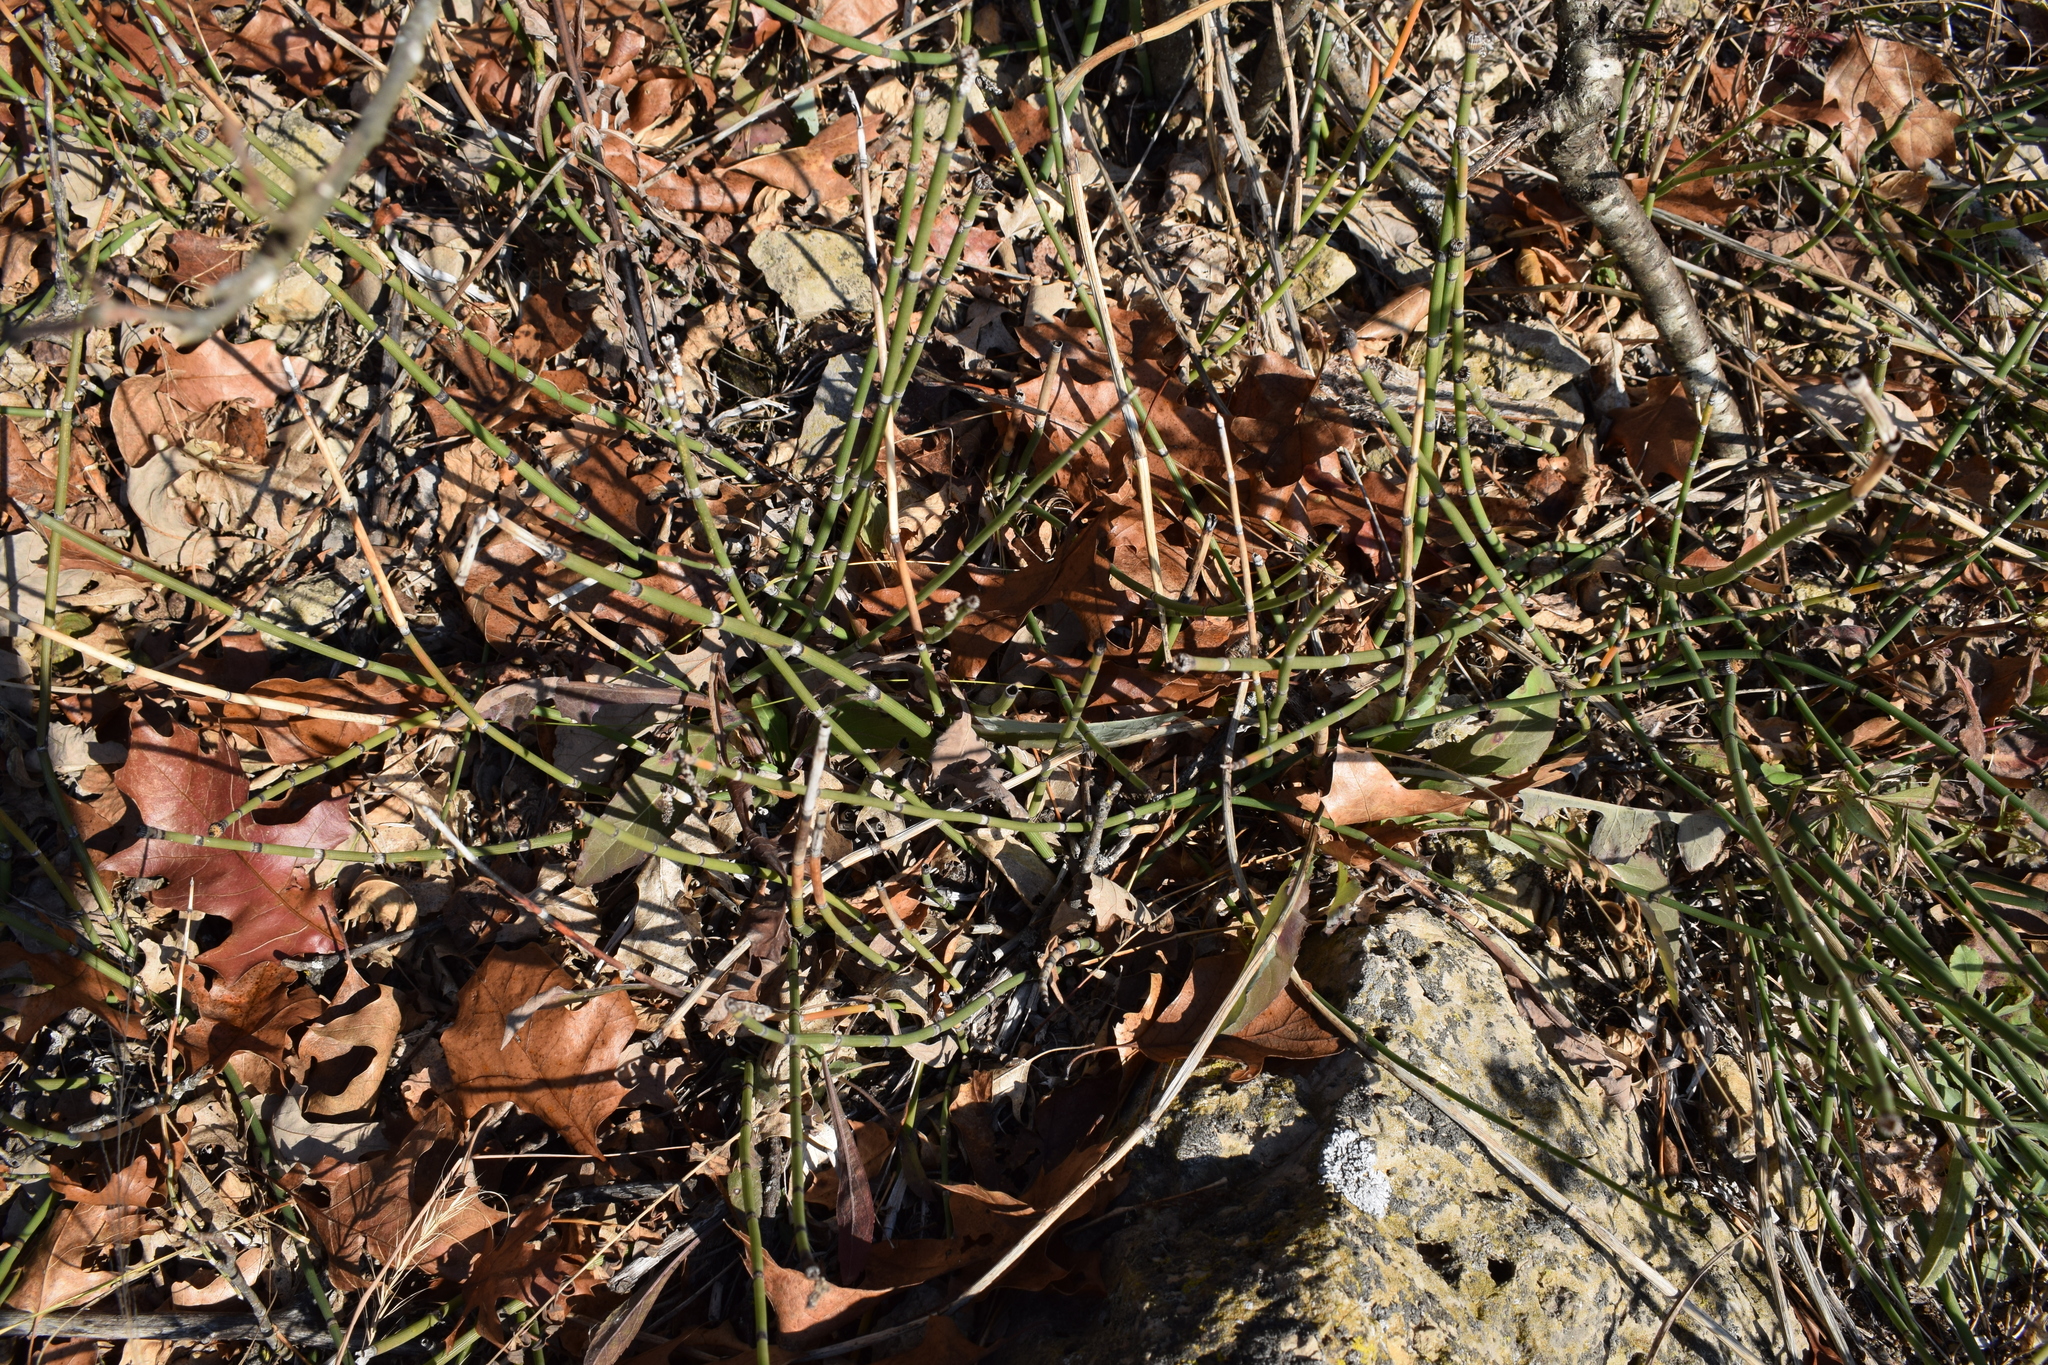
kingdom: Plantae
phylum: Tracheophyta
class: Polypodiopsida
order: Equisetales
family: Equisetaceae
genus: Equisetum
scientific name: Equisetum praealtum
